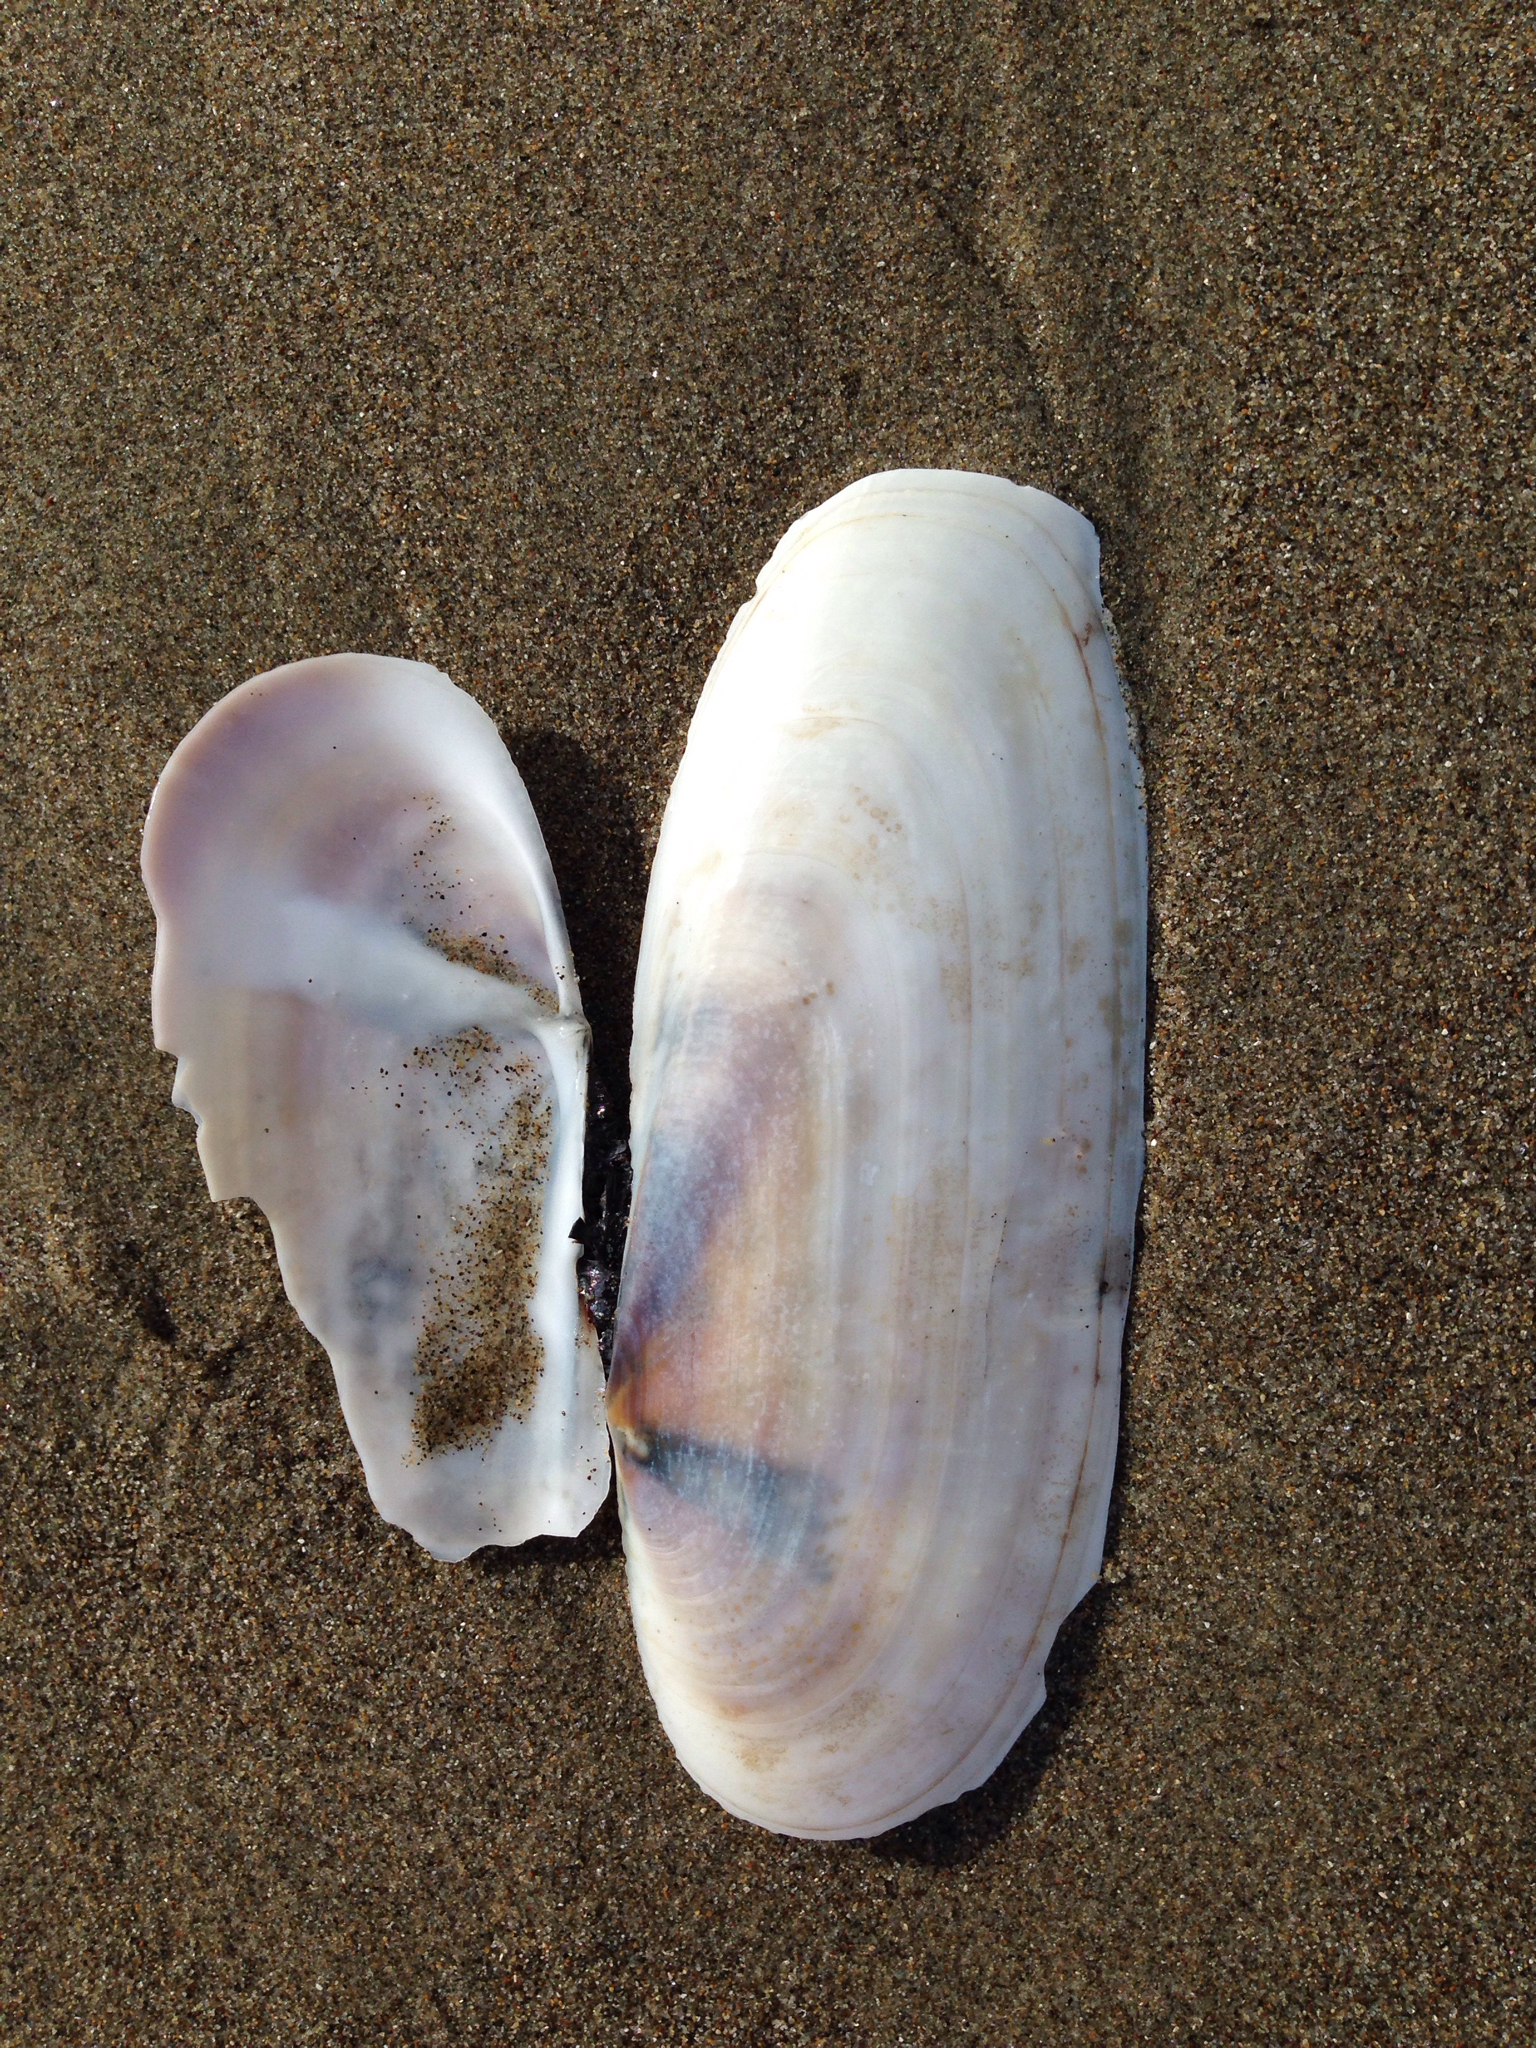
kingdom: Animalia
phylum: Mollusca
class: Bivalvia
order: Adapedonta
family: Pharidae
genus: Siliqua
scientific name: Siliqua patula
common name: Pacific razor clam
